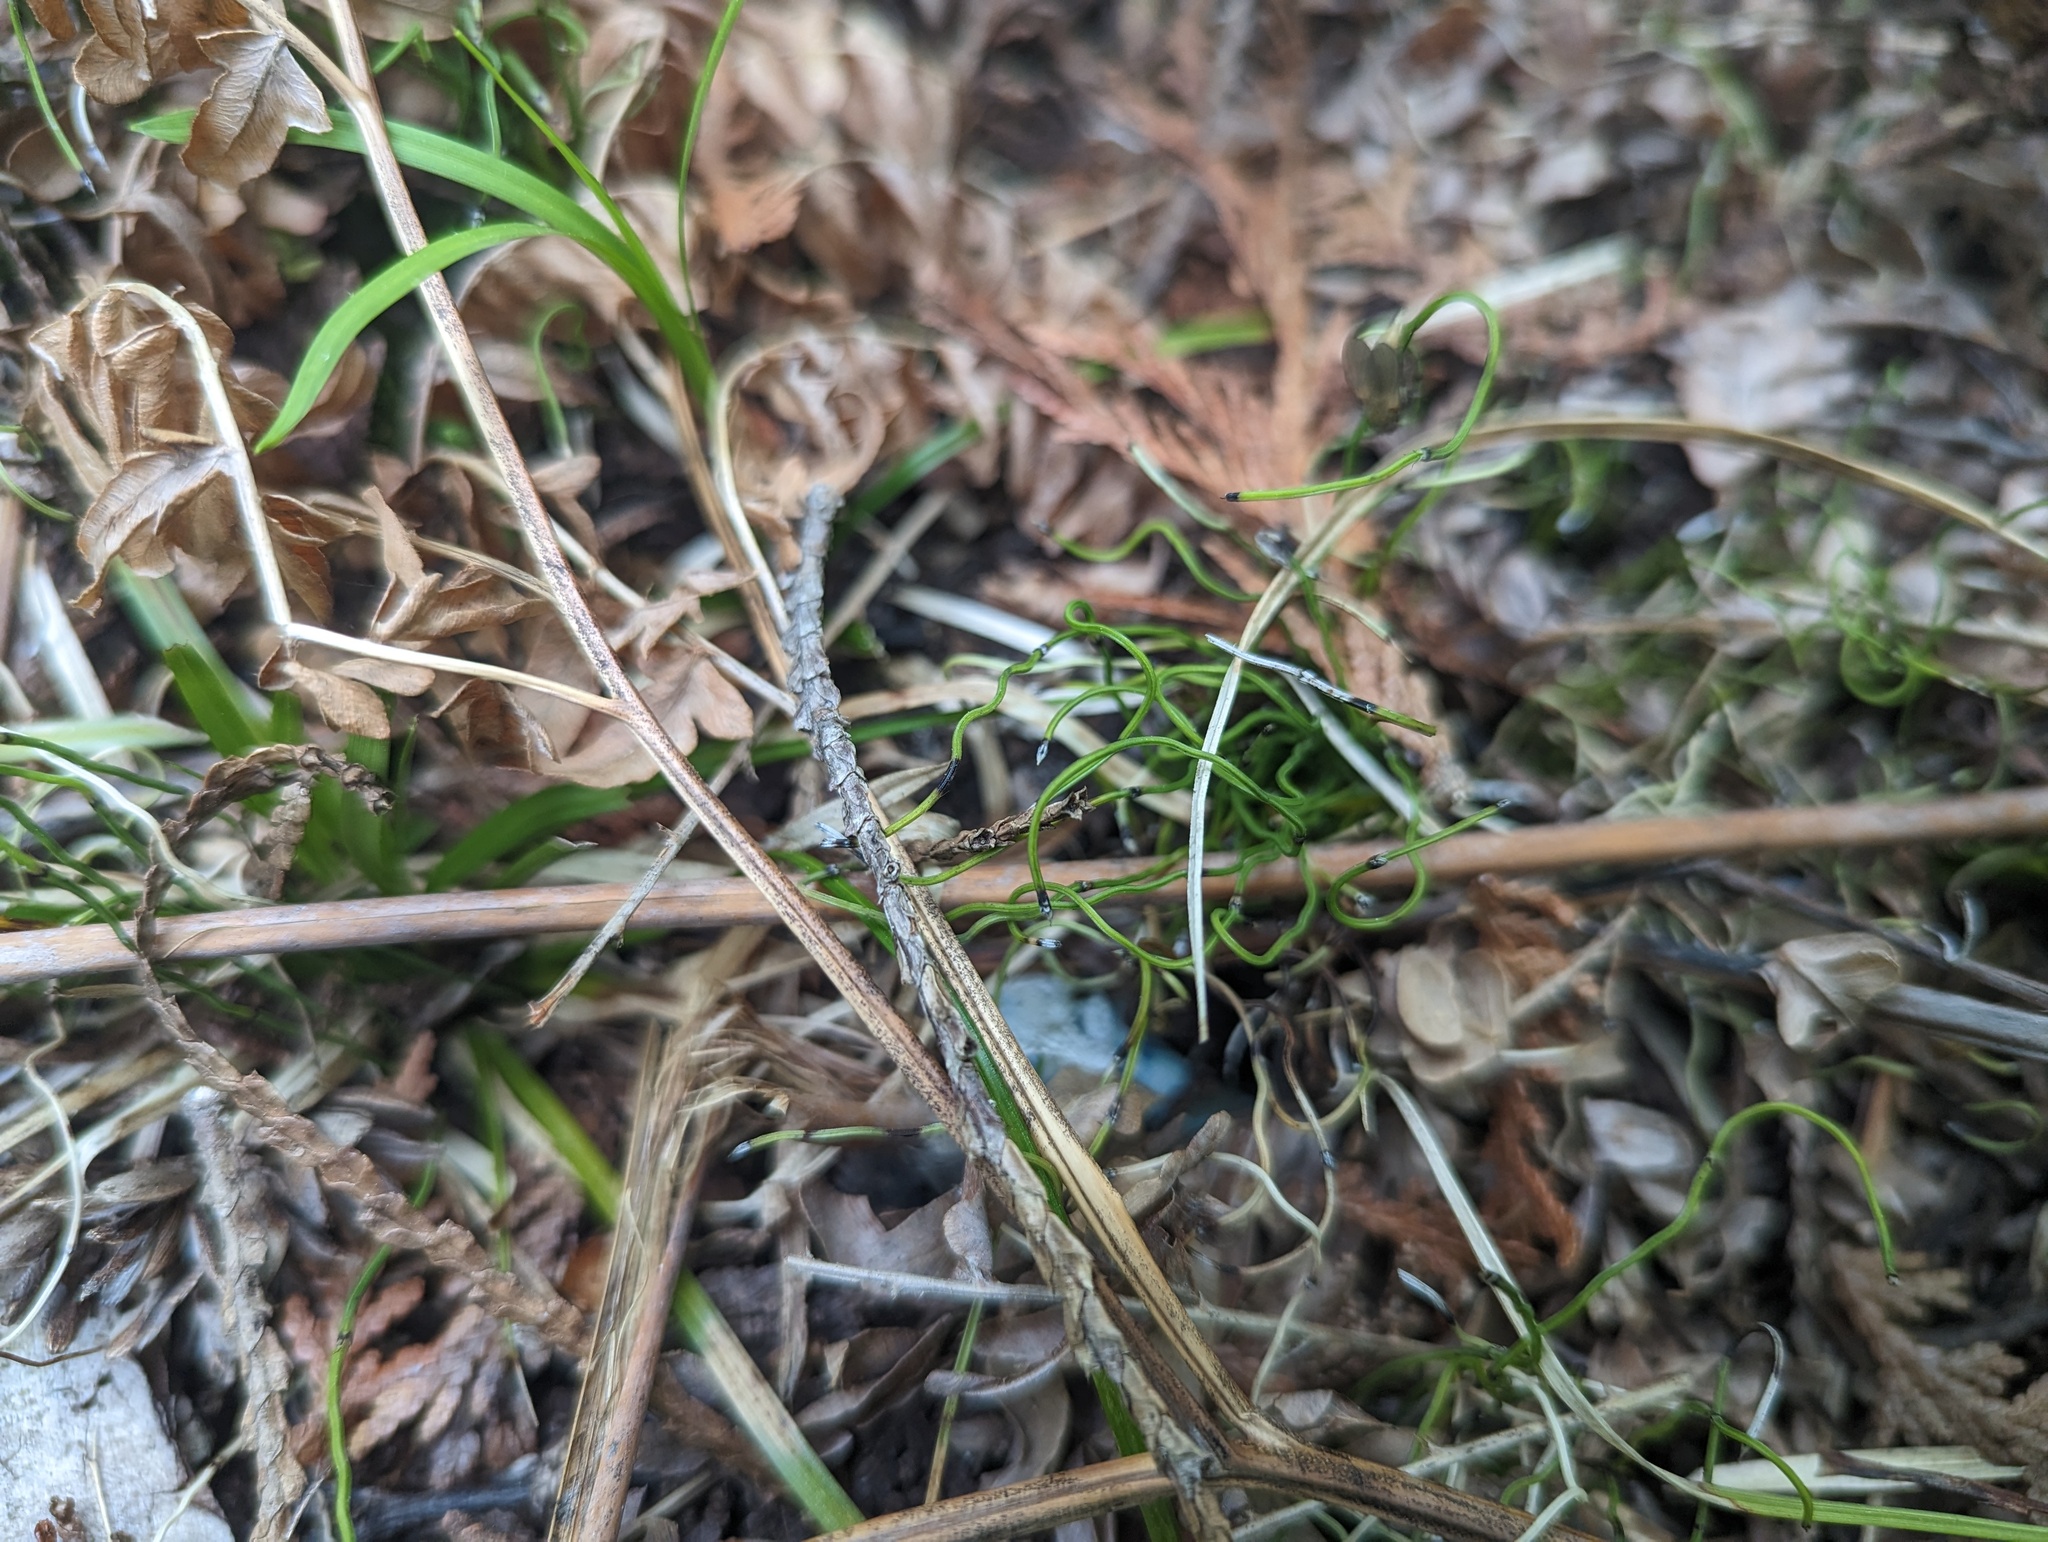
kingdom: Plantae
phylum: Tracheophyta
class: Polypodiopsida
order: Equisetales
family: Equisetaceae
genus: Equisetum
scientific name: Equisetum scirpoides
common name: Delicate horsetail
